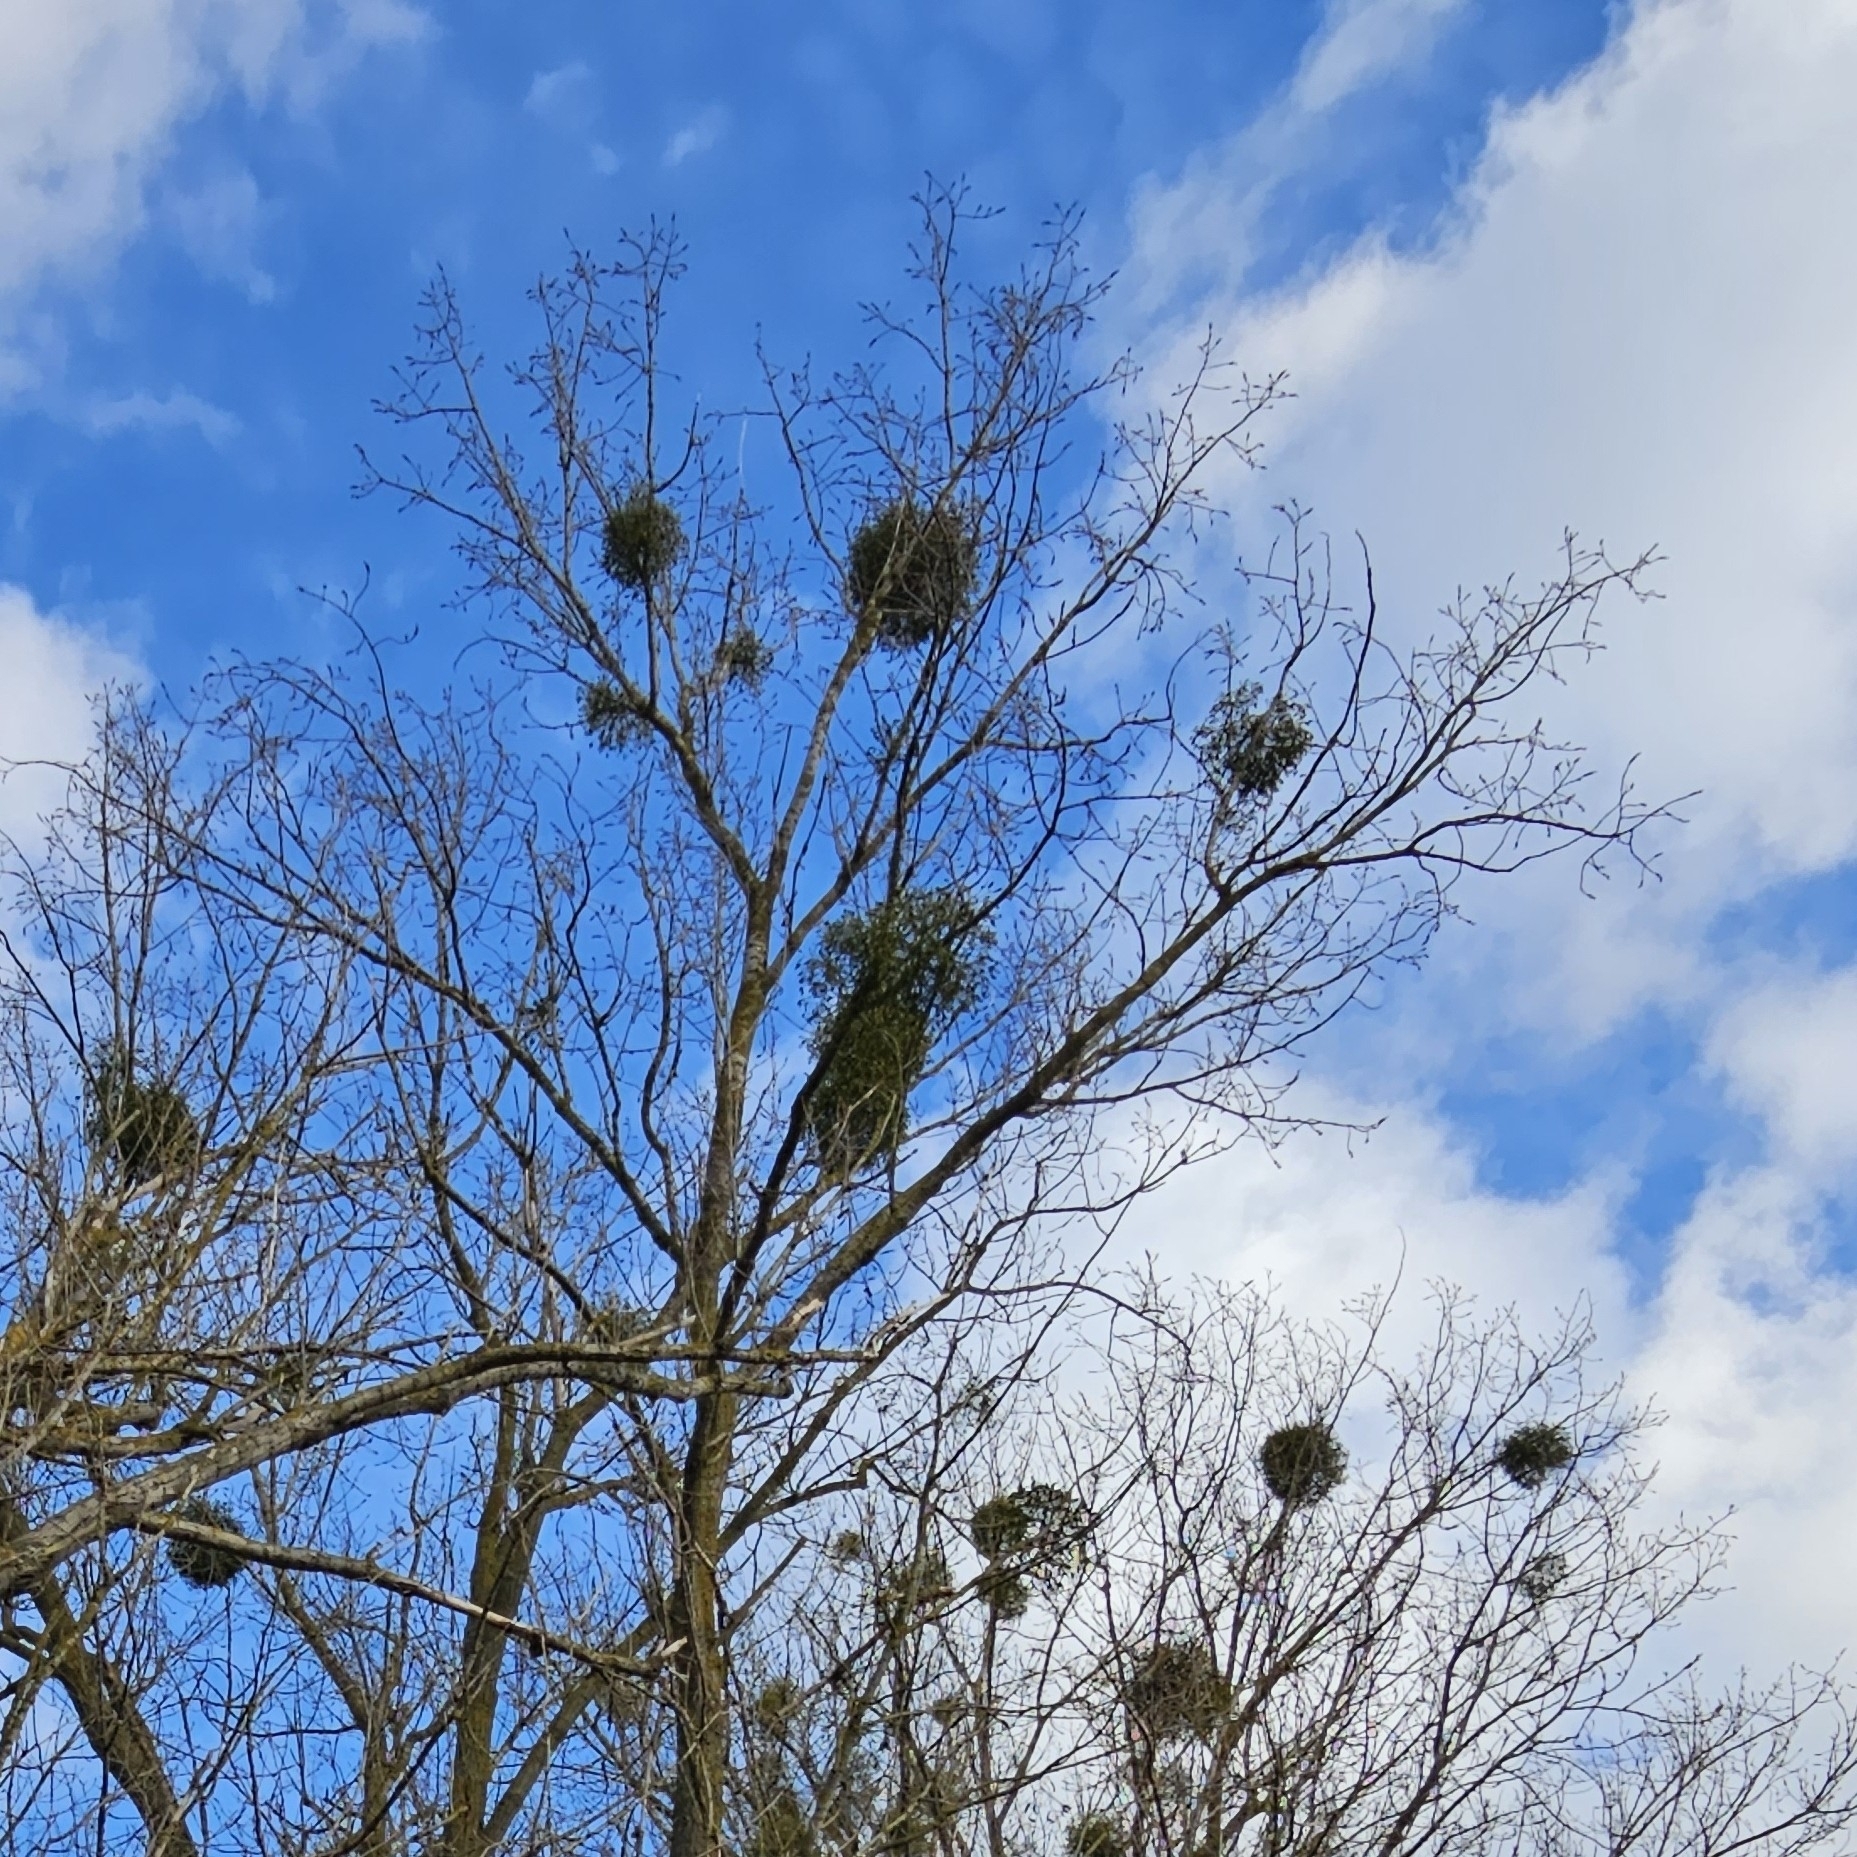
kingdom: Plantae
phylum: Tracheophyta
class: Magnoliopsida
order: Santalales
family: Viscaceae
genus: Viscum
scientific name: Viscum album
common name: Mistletoe
